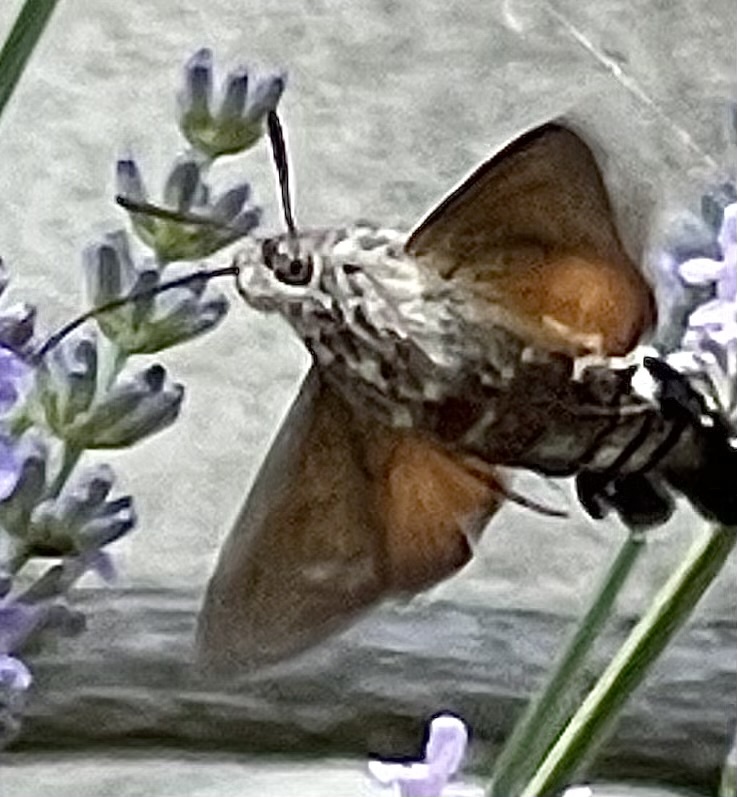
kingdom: Animalia
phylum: Arthropoda
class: Insecta
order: Lepidoptera
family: Sphingidae
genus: Macroglossum
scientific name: Macroglossum stellatarum
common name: Humming-bird hawk-moth
